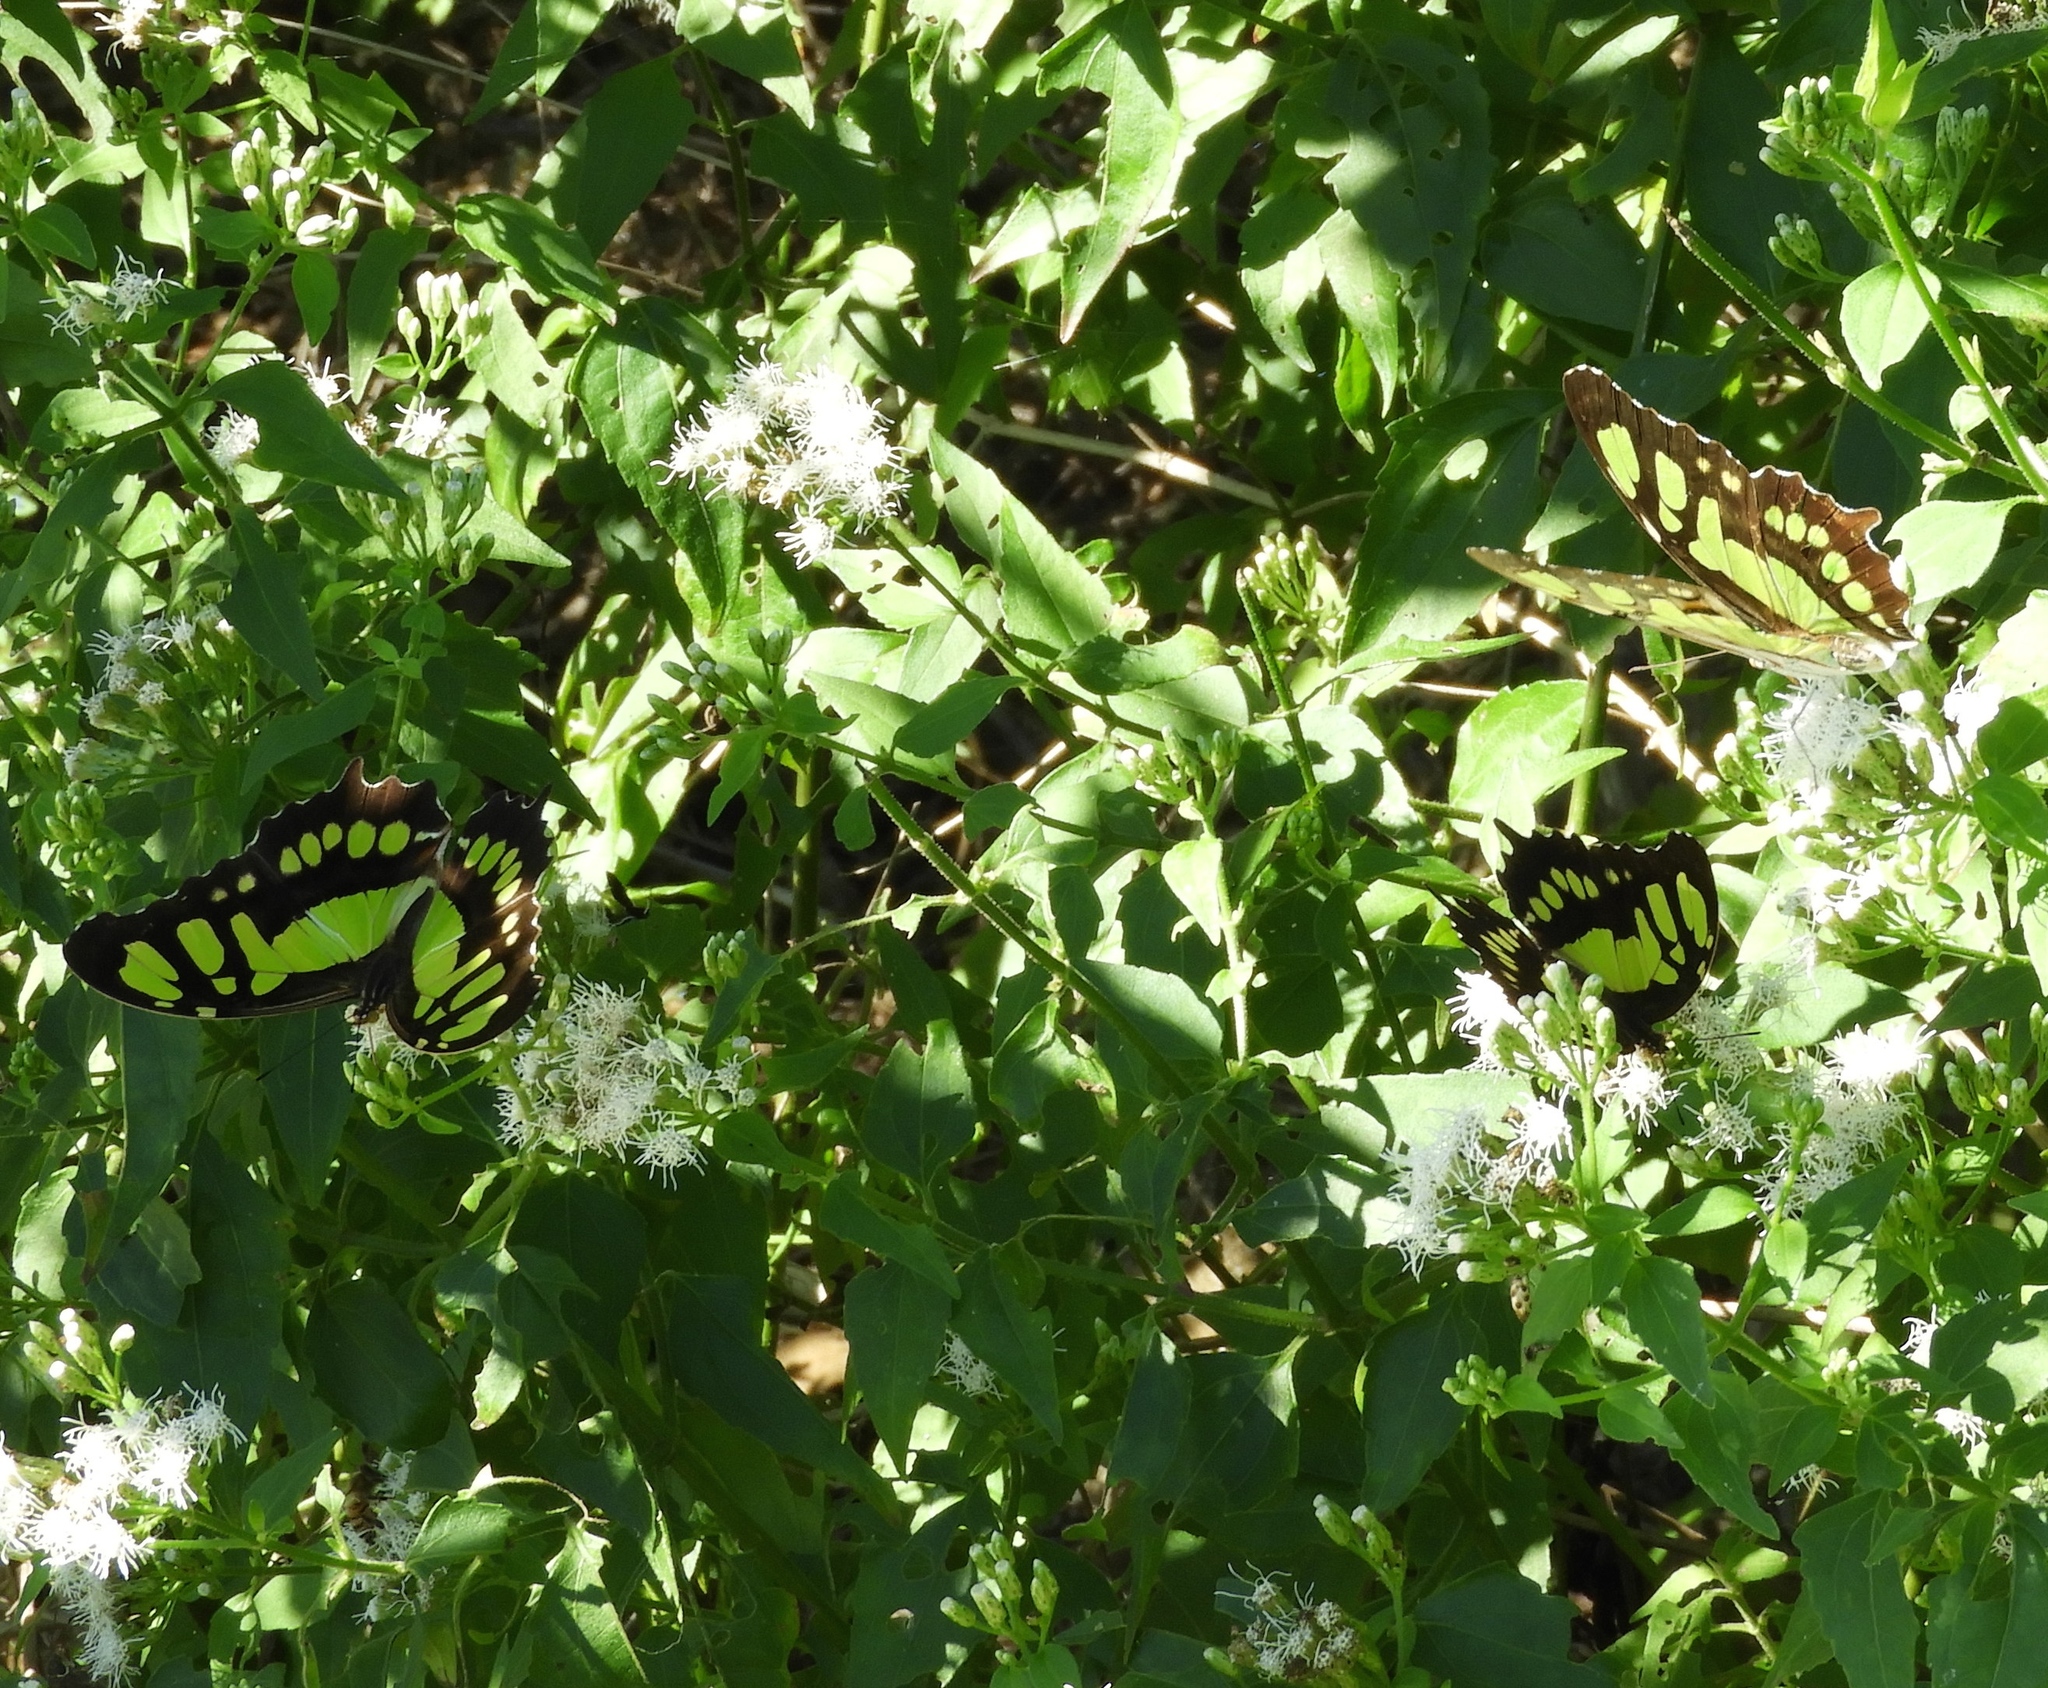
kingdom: Animalia
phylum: Arthropoda
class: Insecta
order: Lepidoptera
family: Nymphalidae
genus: Siproeta
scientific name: Siproeta stelenes
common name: Malachite
